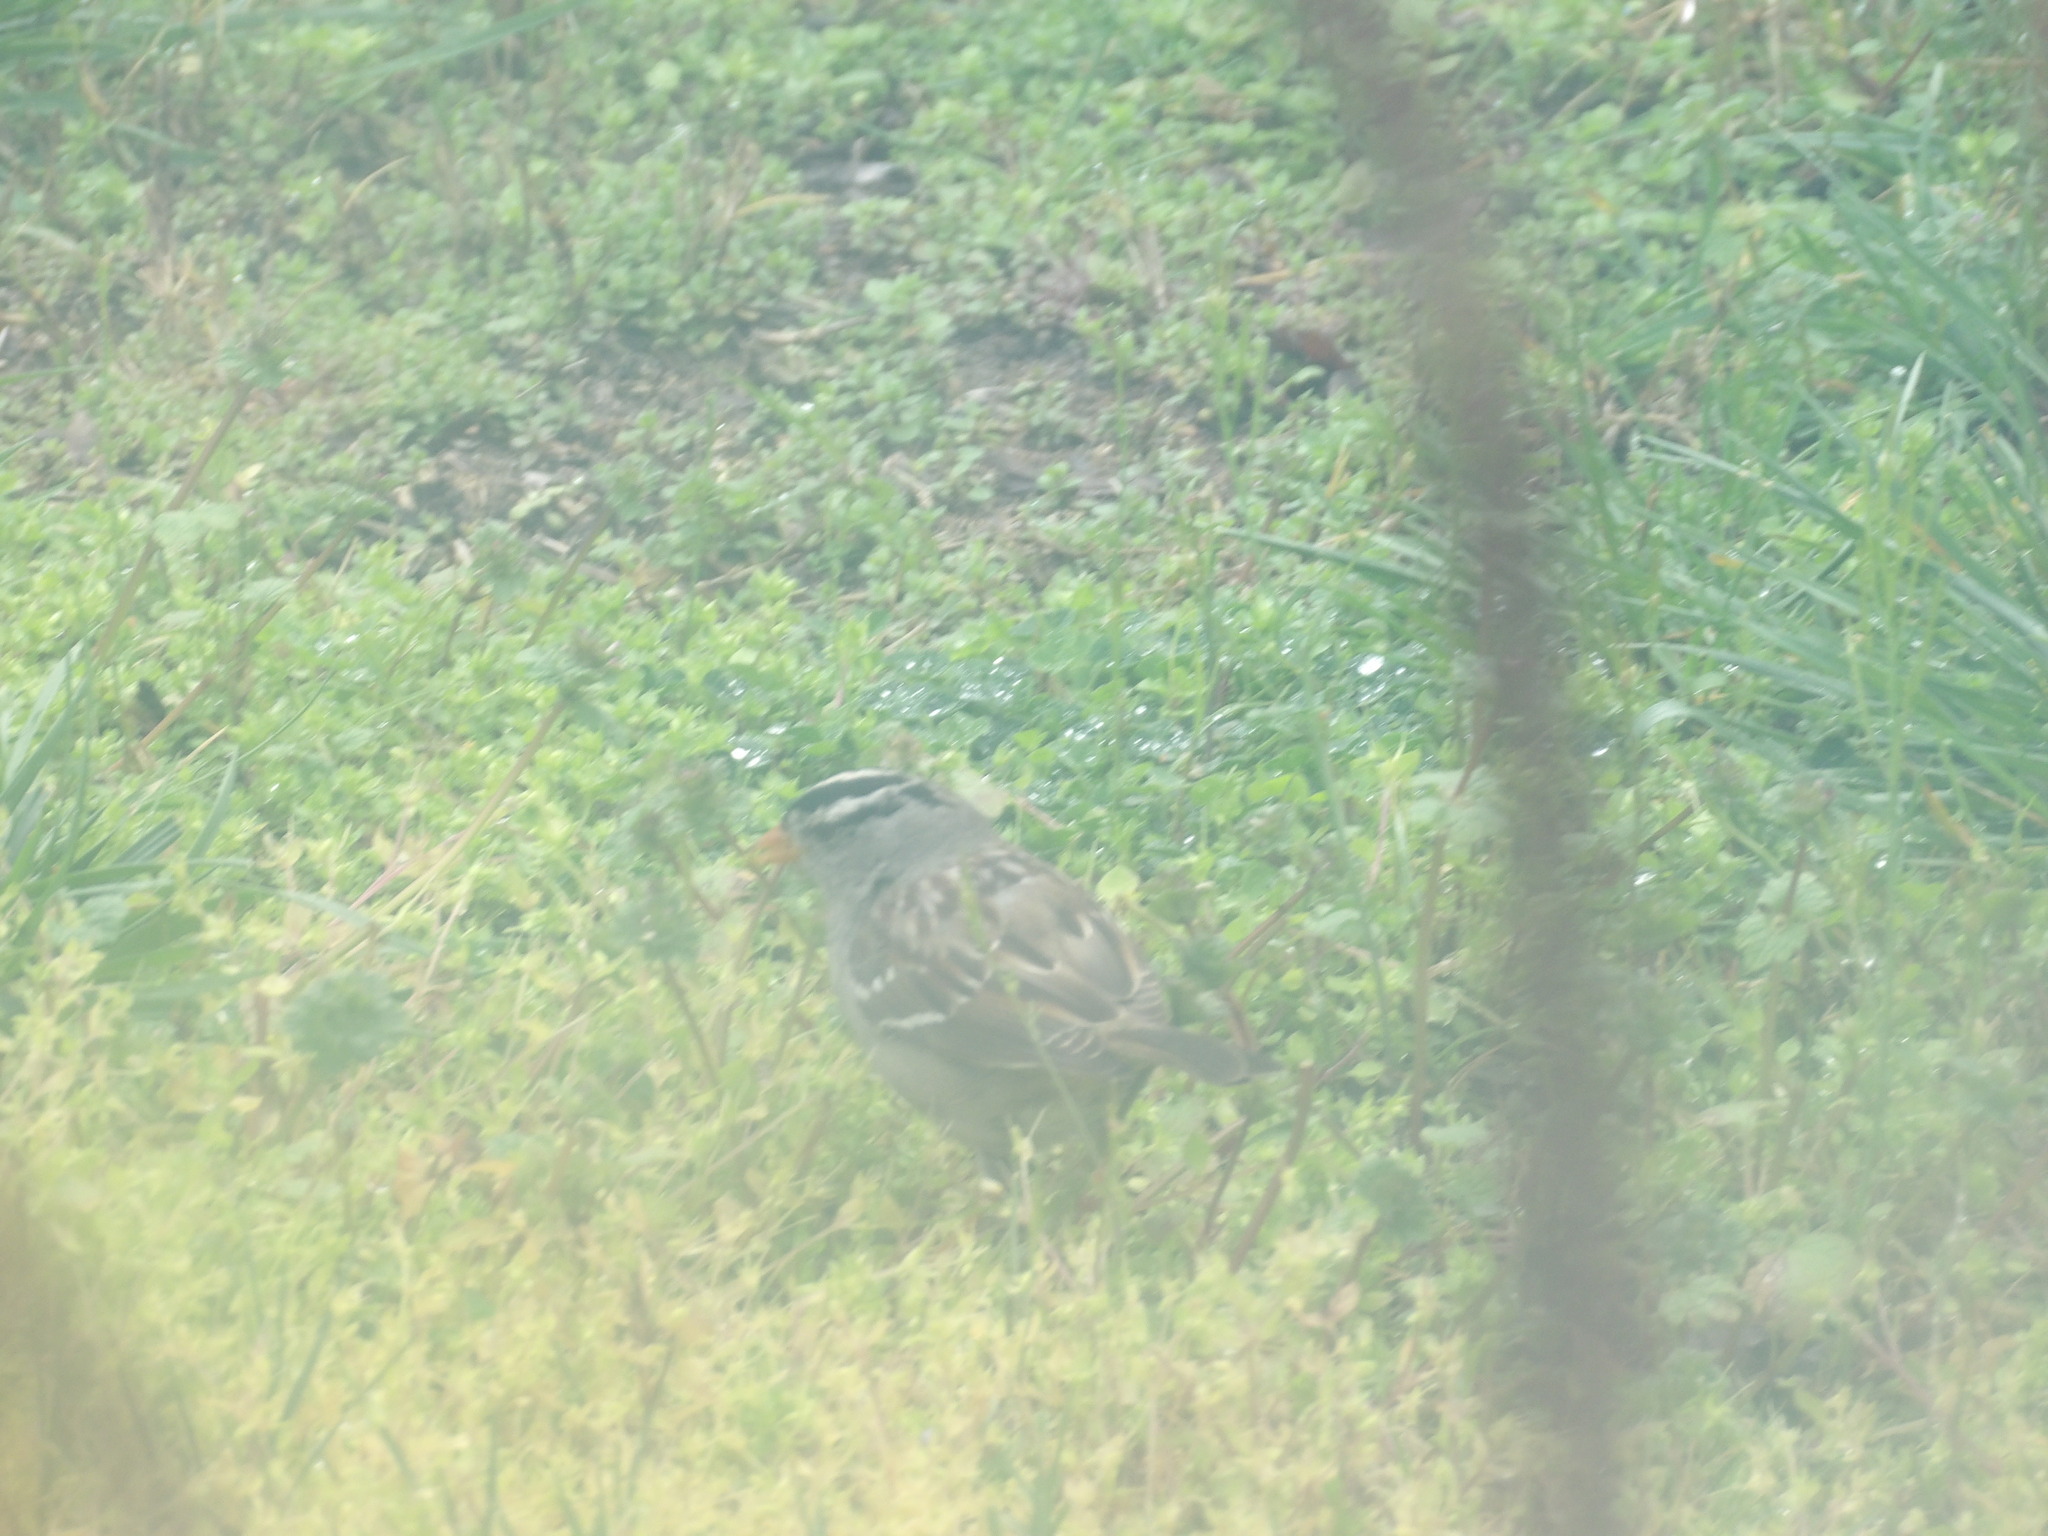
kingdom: Animalia
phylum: Chordata
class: Aves
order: Passeriformes
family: Passerellidae
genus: Zonotrichia
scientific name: Zonotrichia leucophrys
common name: White-crowned sparrow
